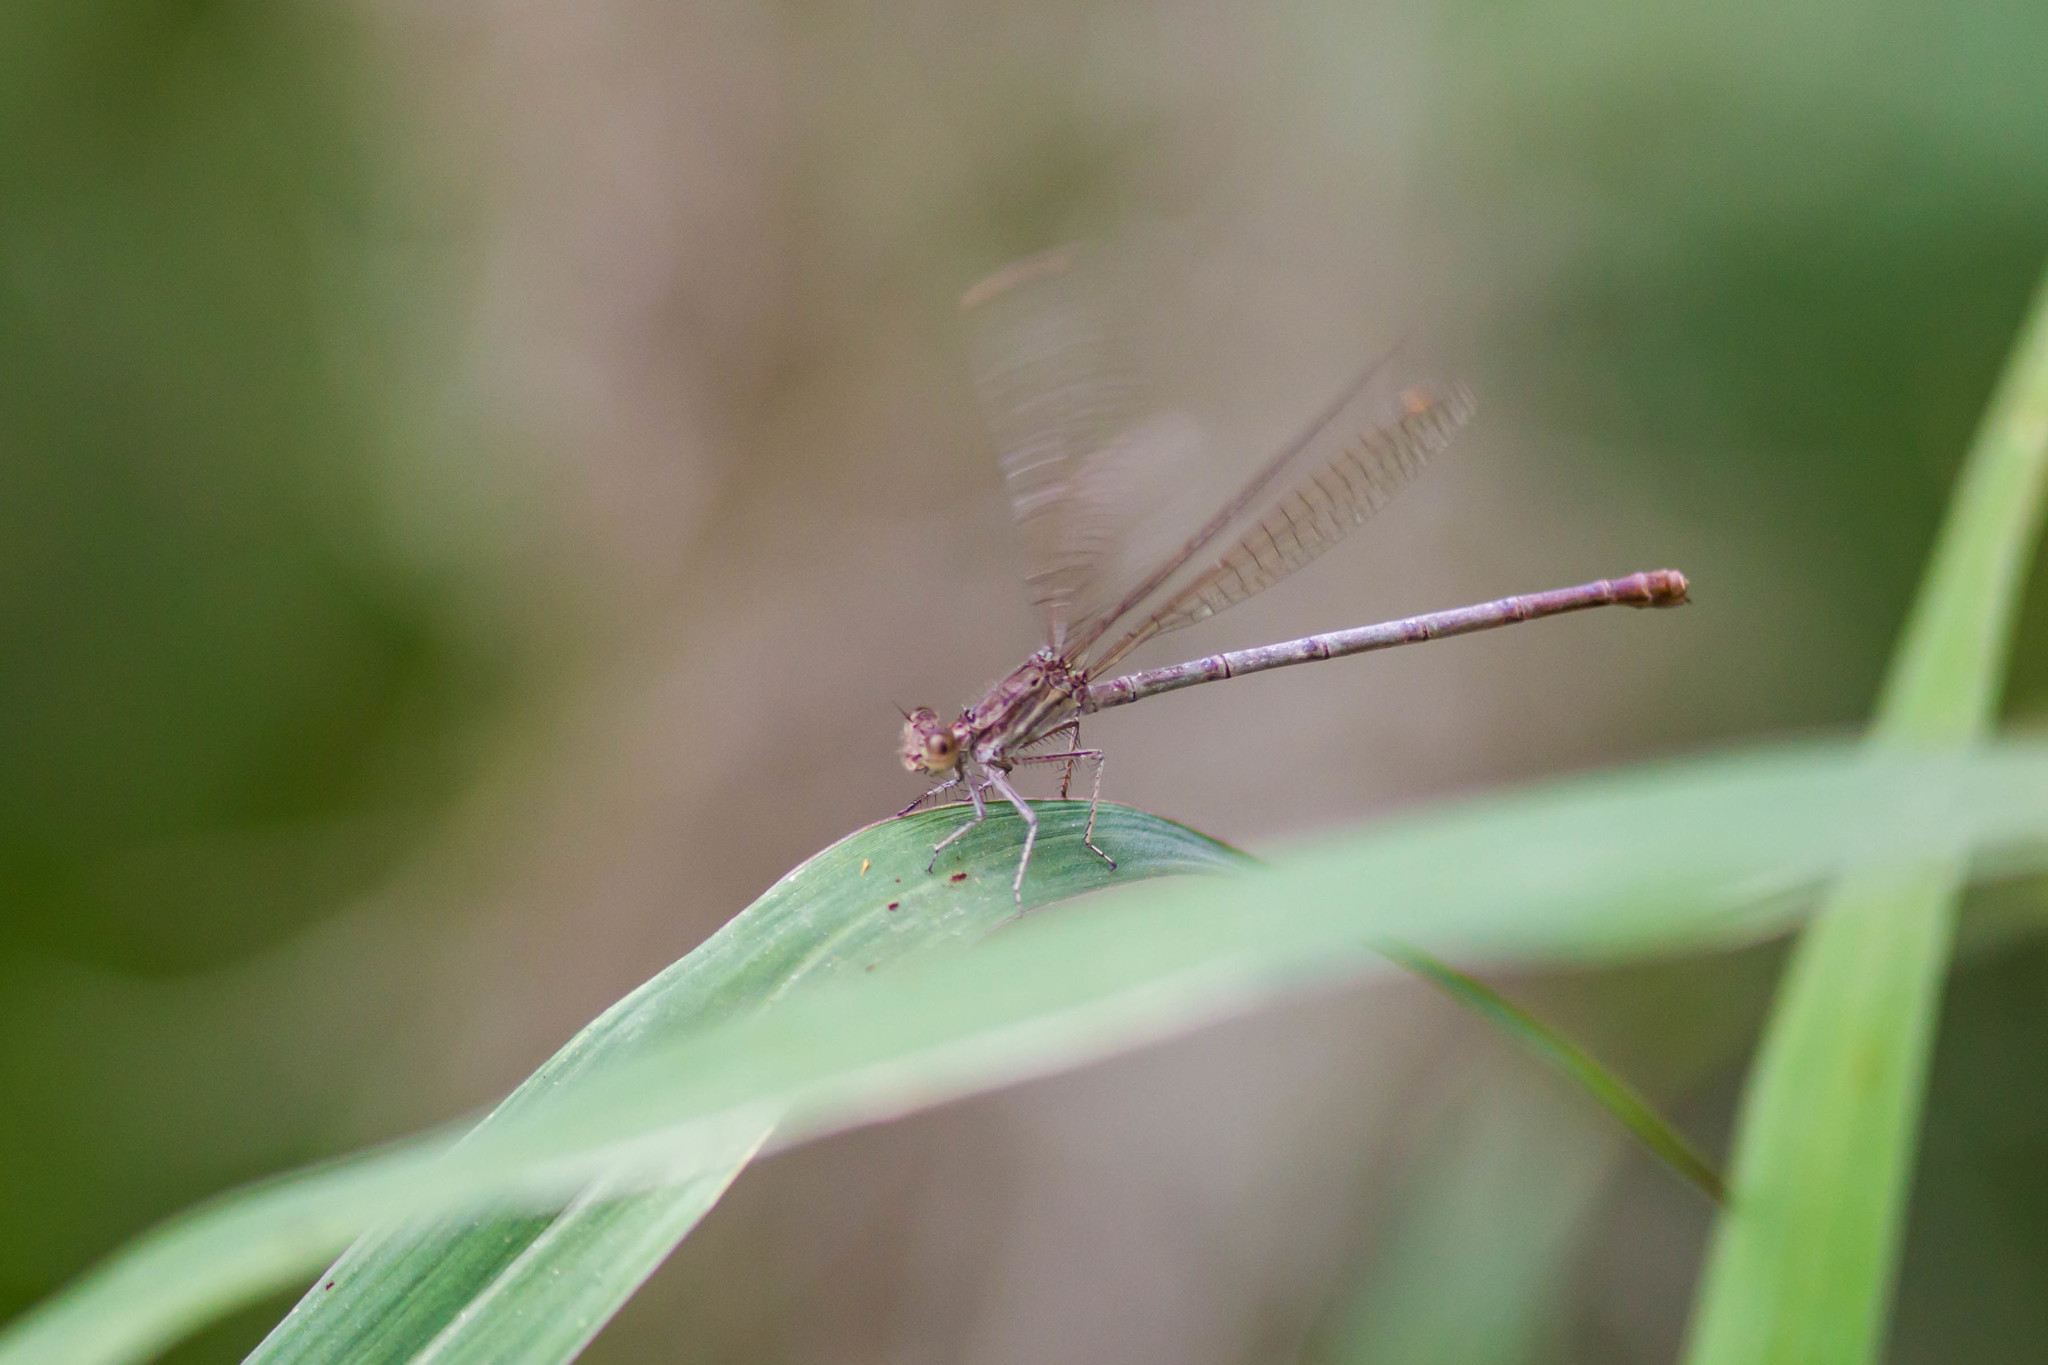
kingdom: Animalia
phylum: Arthropoda
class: Insecta
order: Odonata
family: Coenagrionidae
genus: Argia
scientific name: Argia sedula
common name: Blue-ringed dancer
